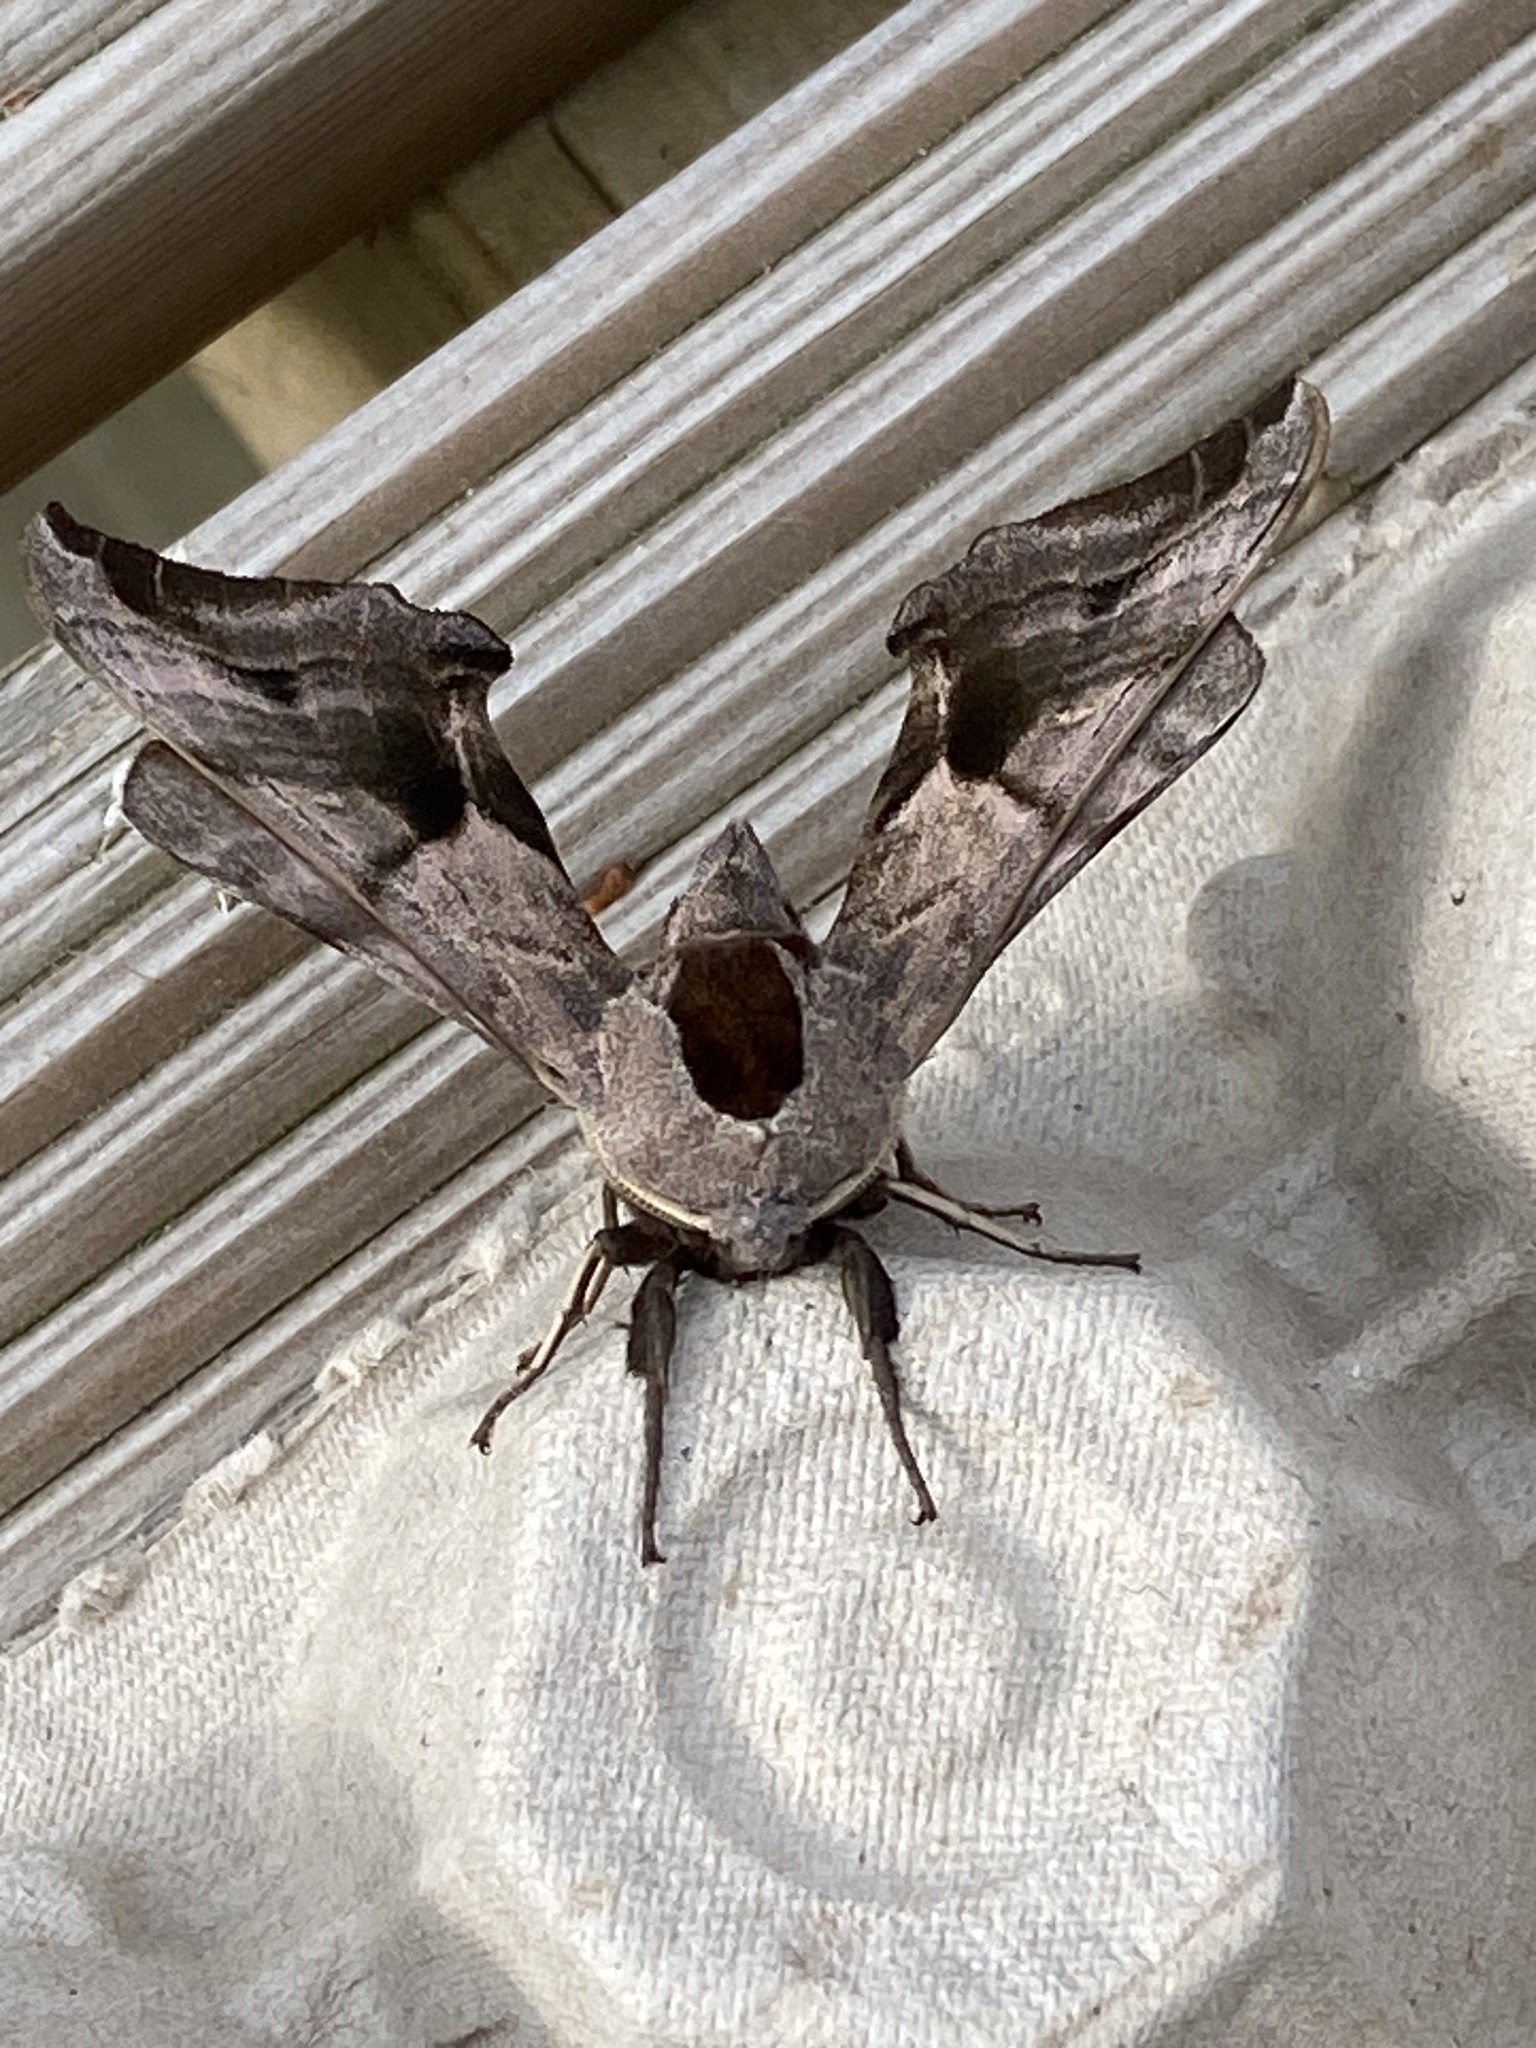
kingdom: Animalia
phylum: Arthropoda
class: Insecta
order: Lepidoptera
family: Sphingidae
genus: Smerinthus
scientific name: Smerinthus ocellata
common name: Eyed hawk-moth
